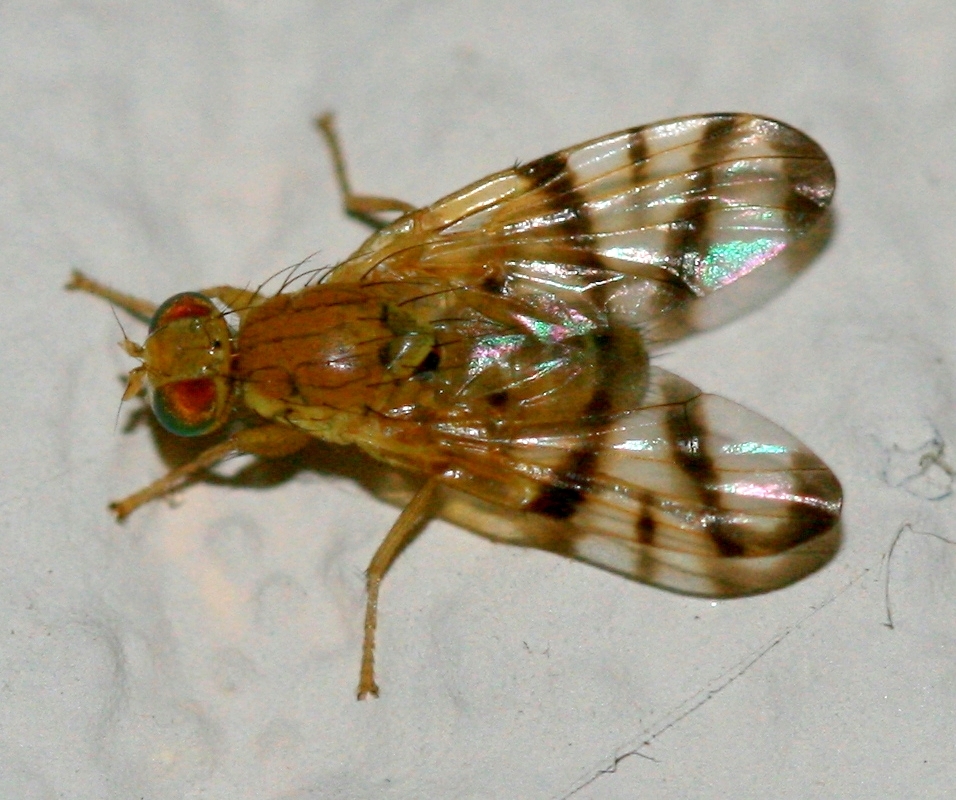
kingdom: Animalia
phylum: Arthropoda
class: Insecta
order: Diptera
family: Tephritidae
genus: Rhagoletis
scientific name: Rhagoletis alternata
